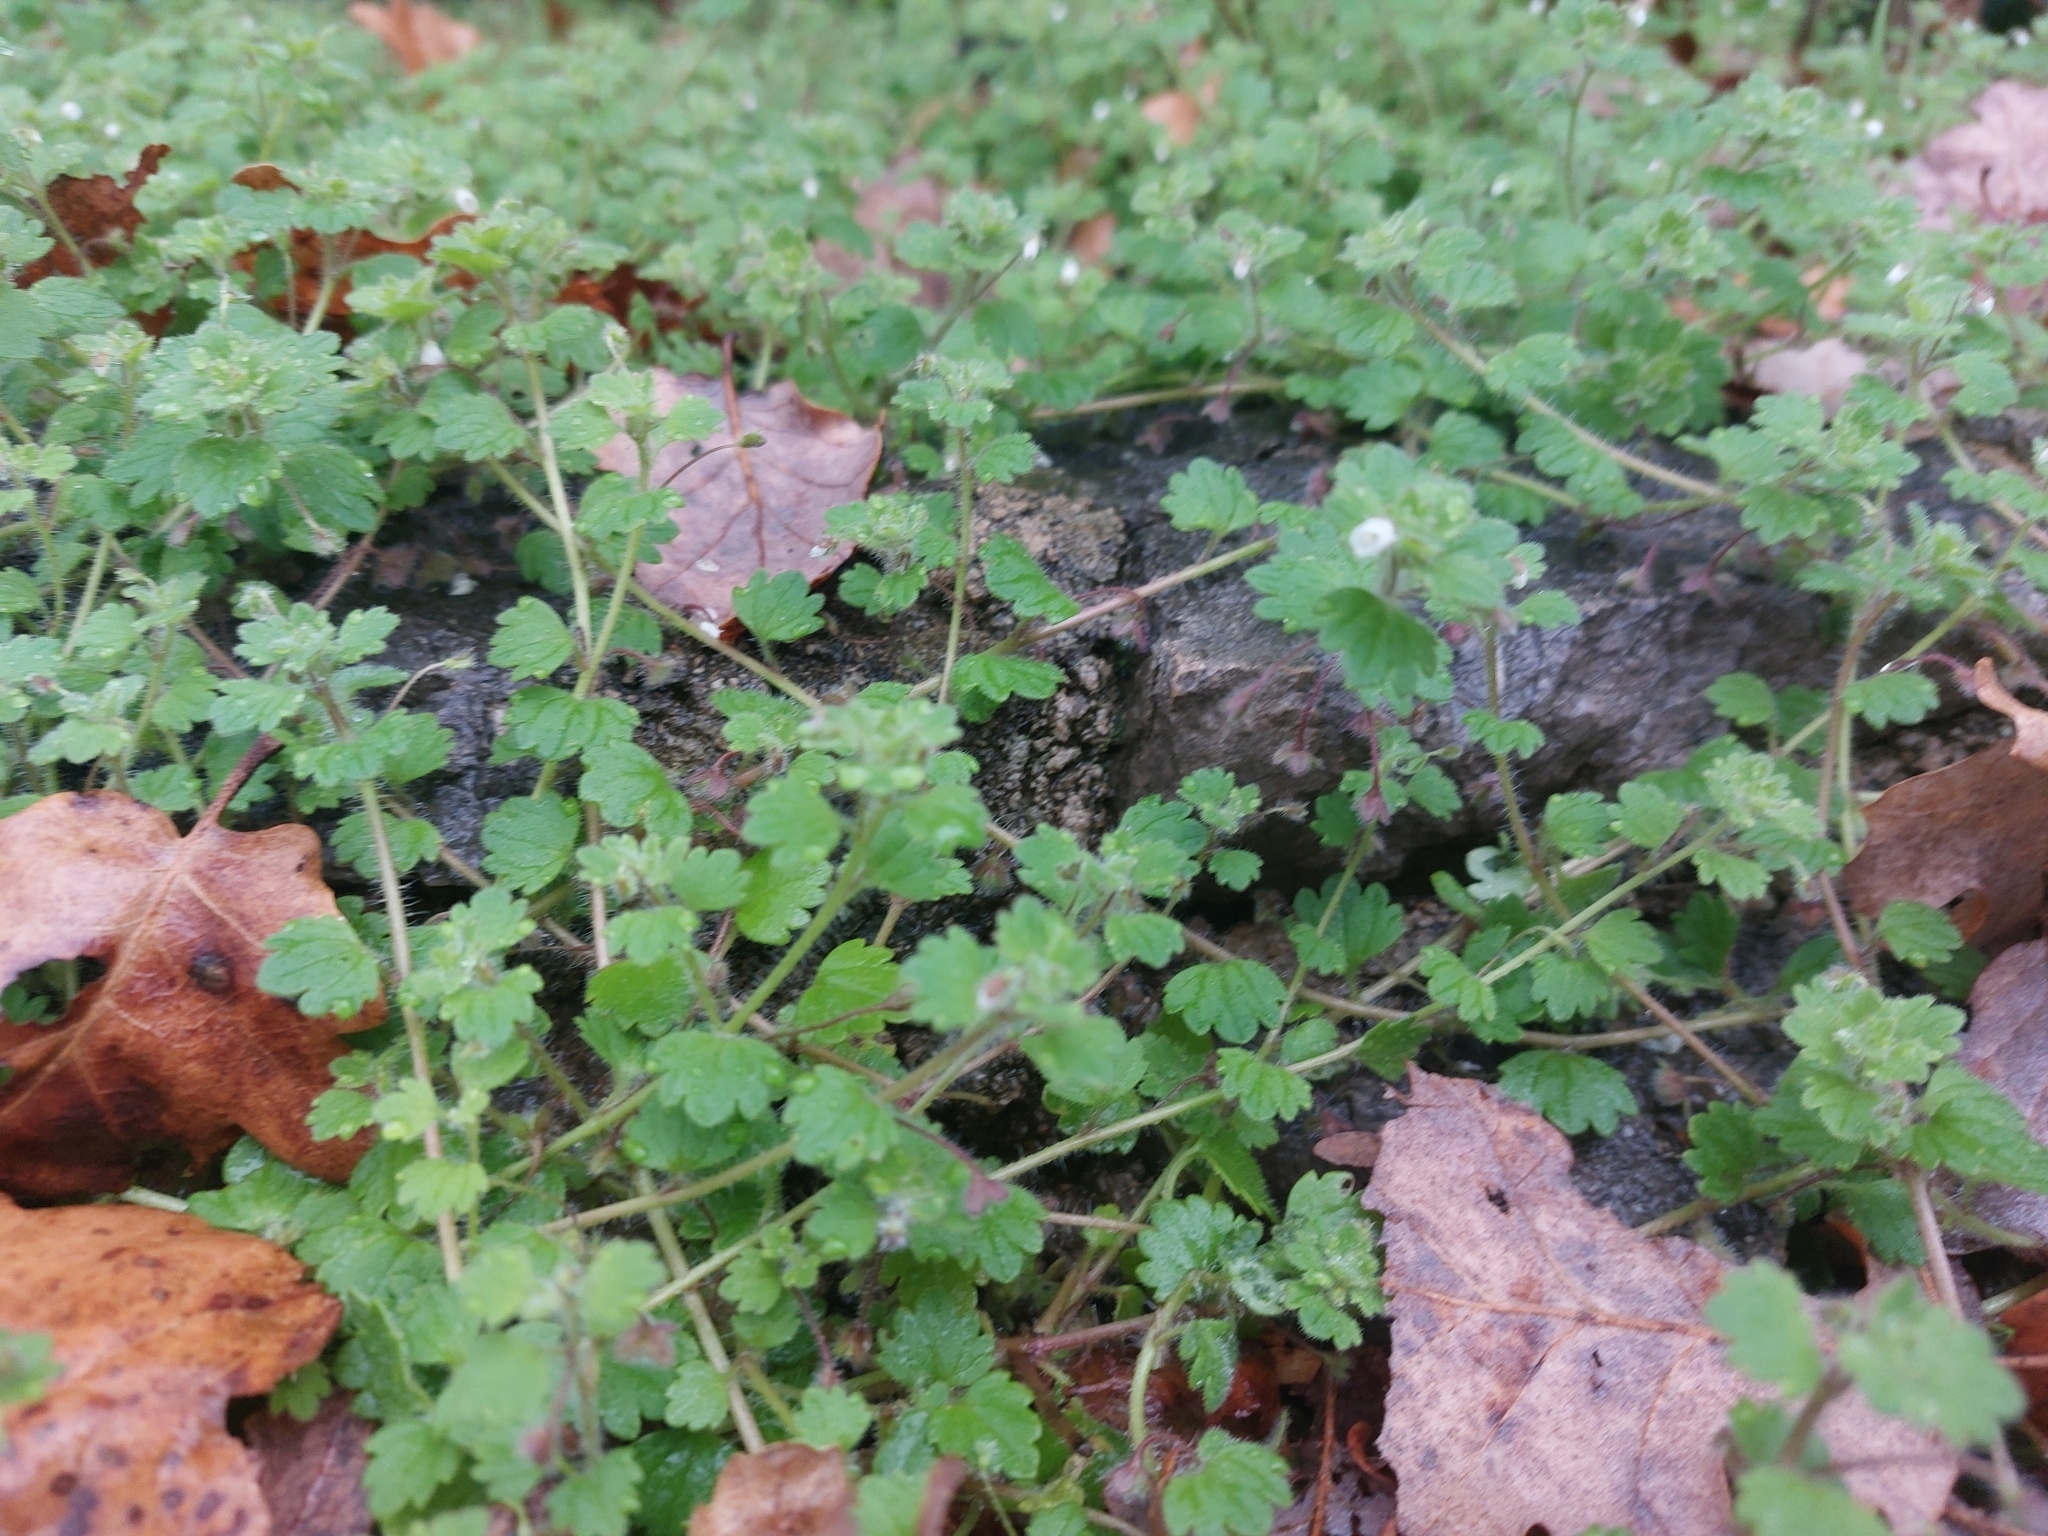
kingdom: Plantae
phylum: Tracheophyta
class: Magnoliopsida
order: Lamiales
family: Plantaginaceae
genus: Veronica
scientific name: Veronica cymbalaria
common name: Pale speedwell
